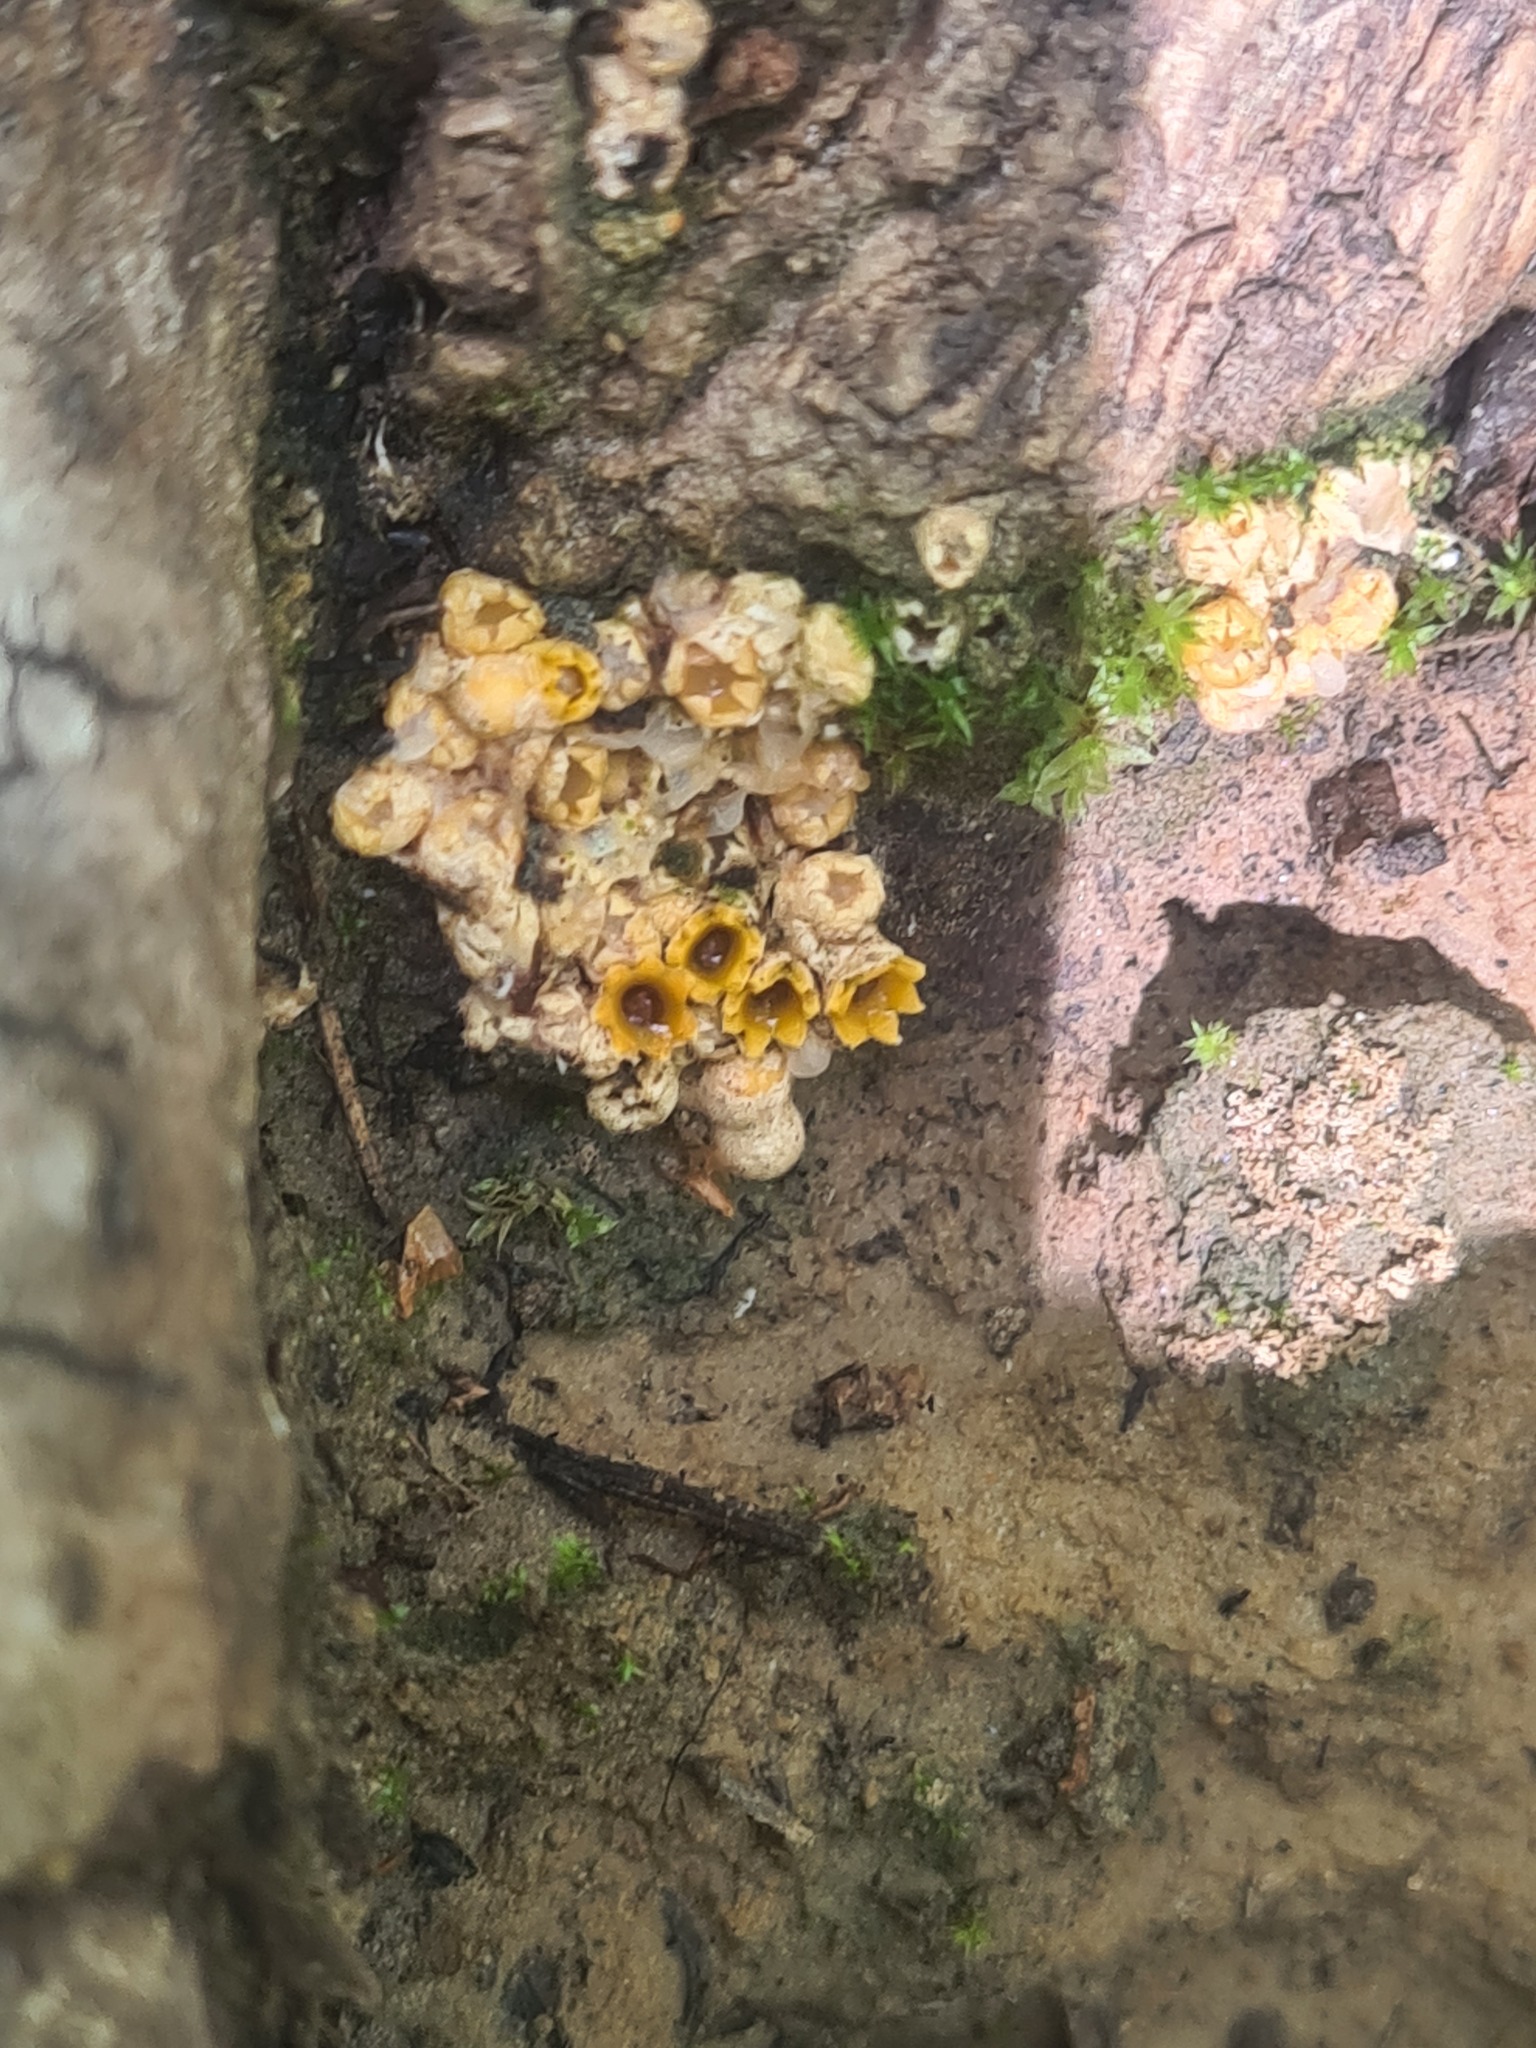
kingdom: Fungi
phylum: Basidiomycota
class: Agaricomycetes
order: Geastrales
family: Geastraceae
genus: Sphaerobolus
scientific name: Sphaerobolus stellatus
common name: Cannon fungus
